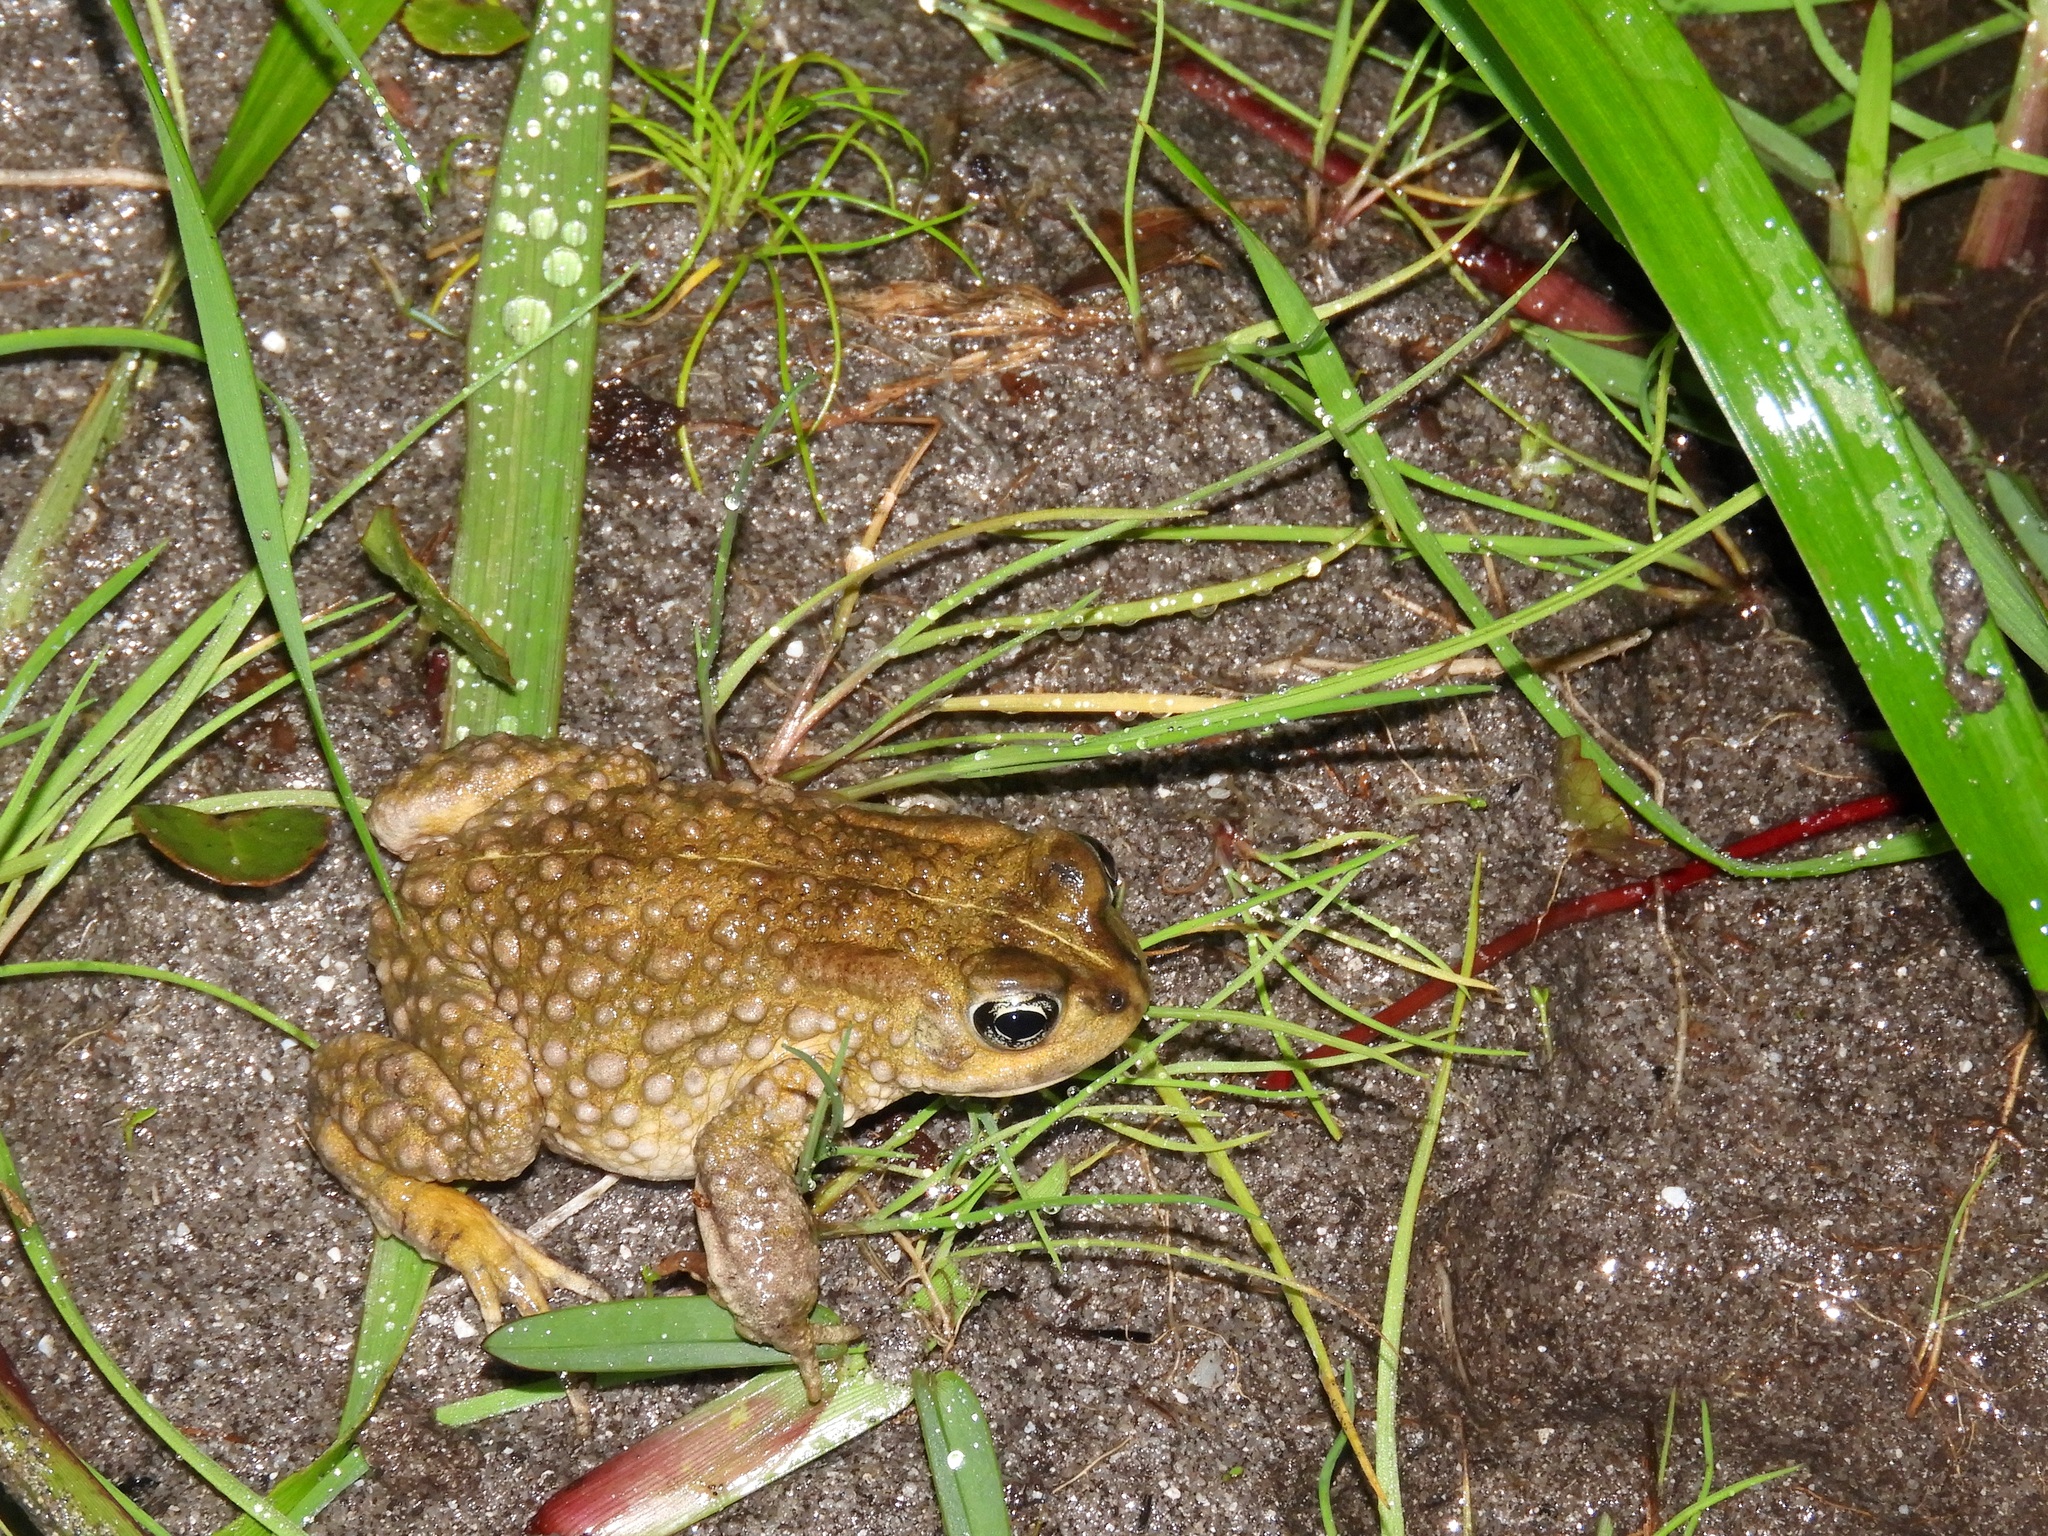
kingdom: Animalia
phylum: Chordata
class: Amphibia
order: Anura
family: Bufonidae
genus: Vandijkophrynus
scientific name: Vandijkophrynus angusticeps
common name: Sand toad
